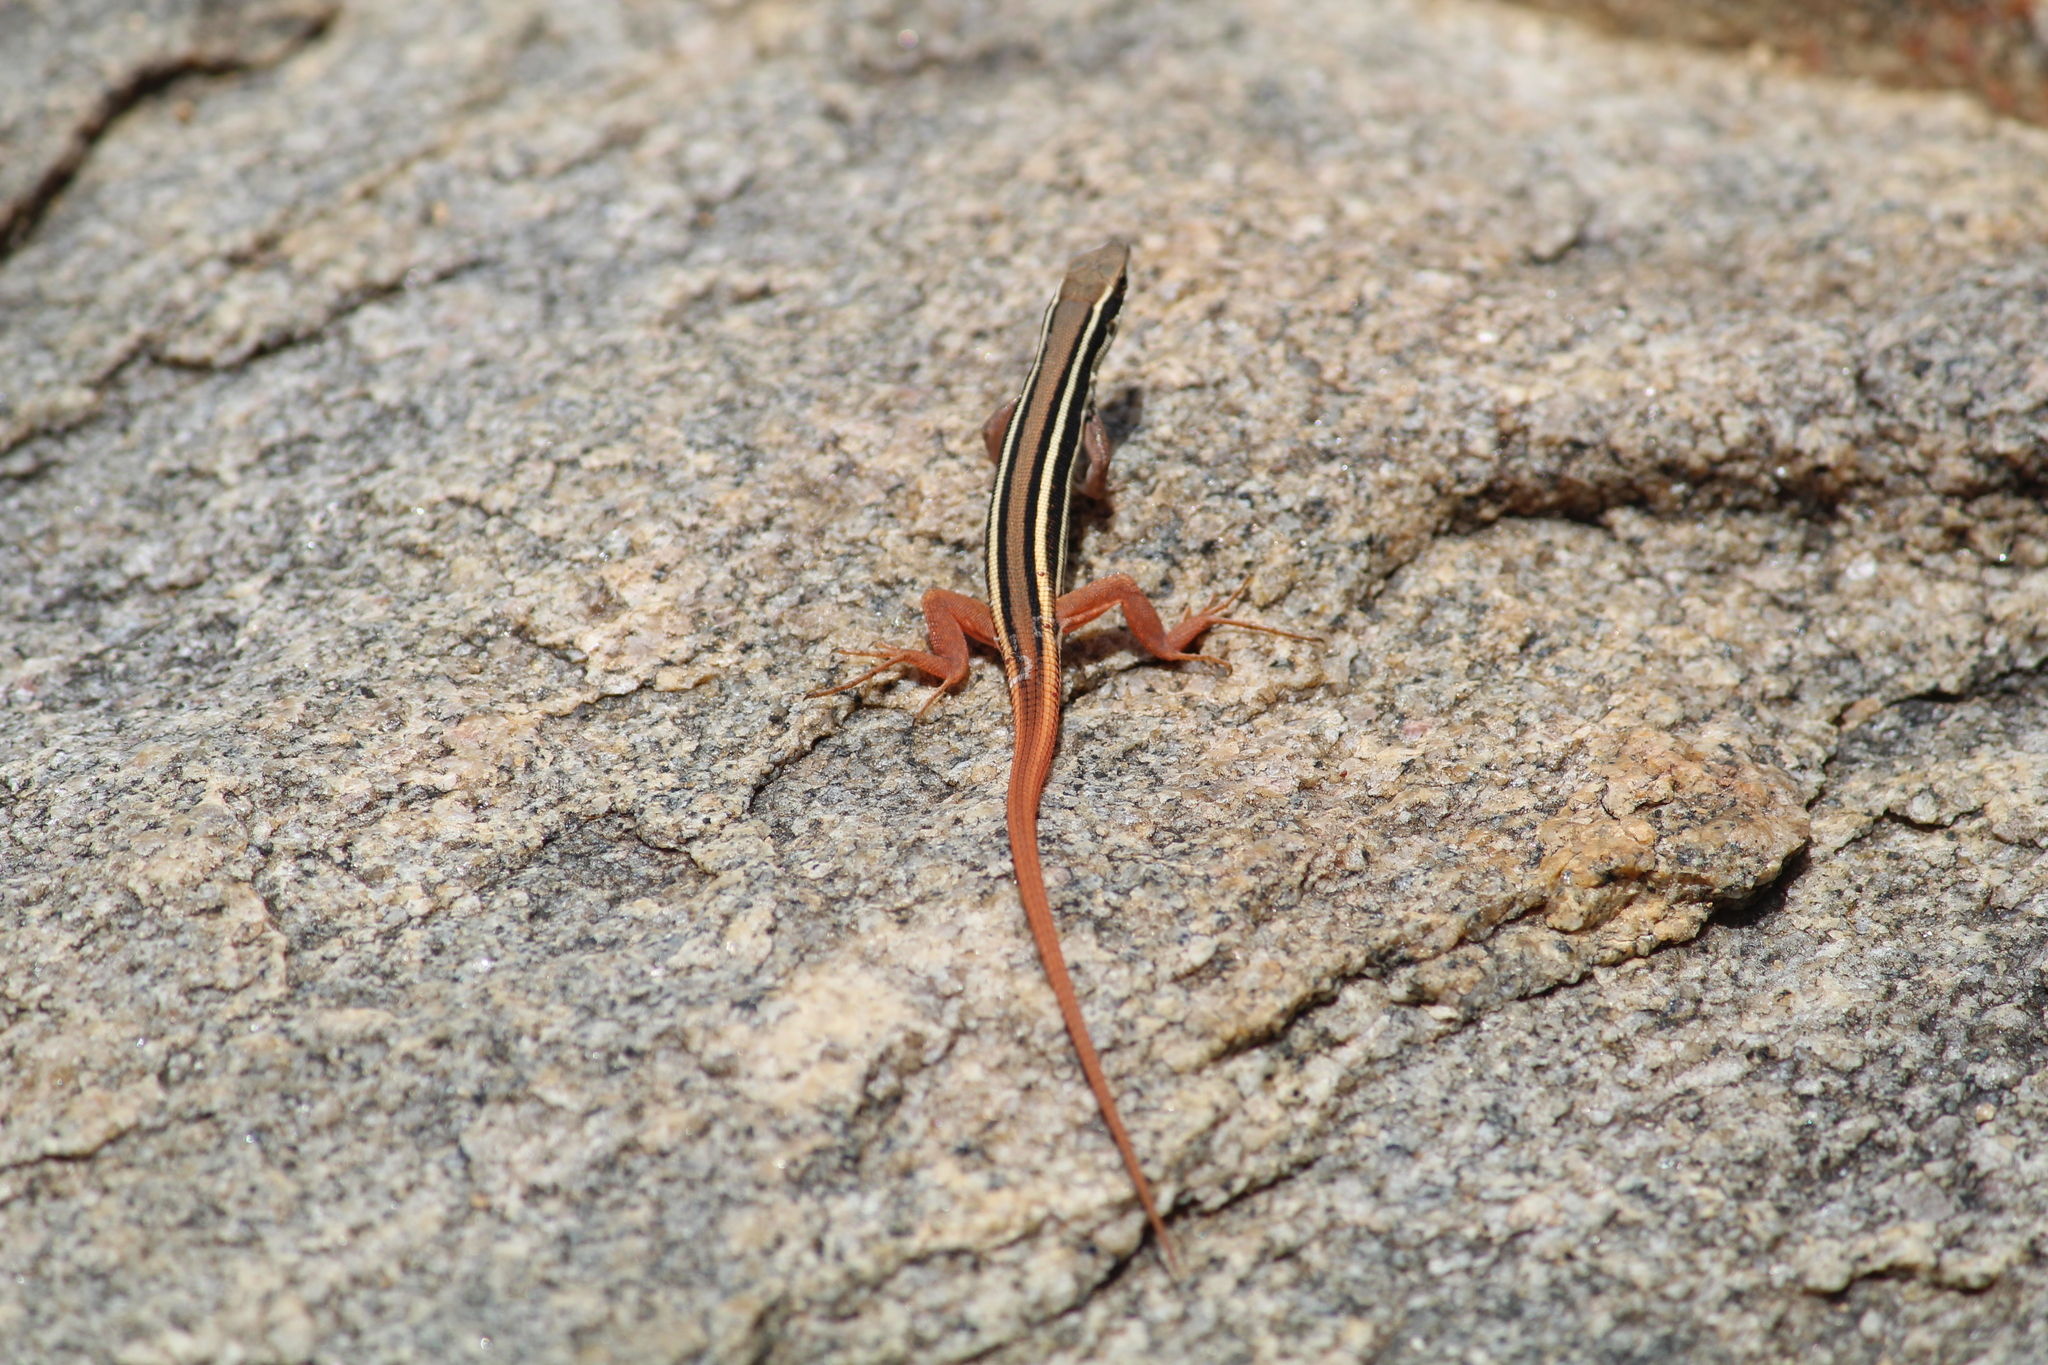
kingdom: Animalia
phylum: Chordata
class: Squamata
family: Lacertidae
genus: Ophisops
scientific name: Ophisops leschenaultii
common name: Leschenault's cabrita
